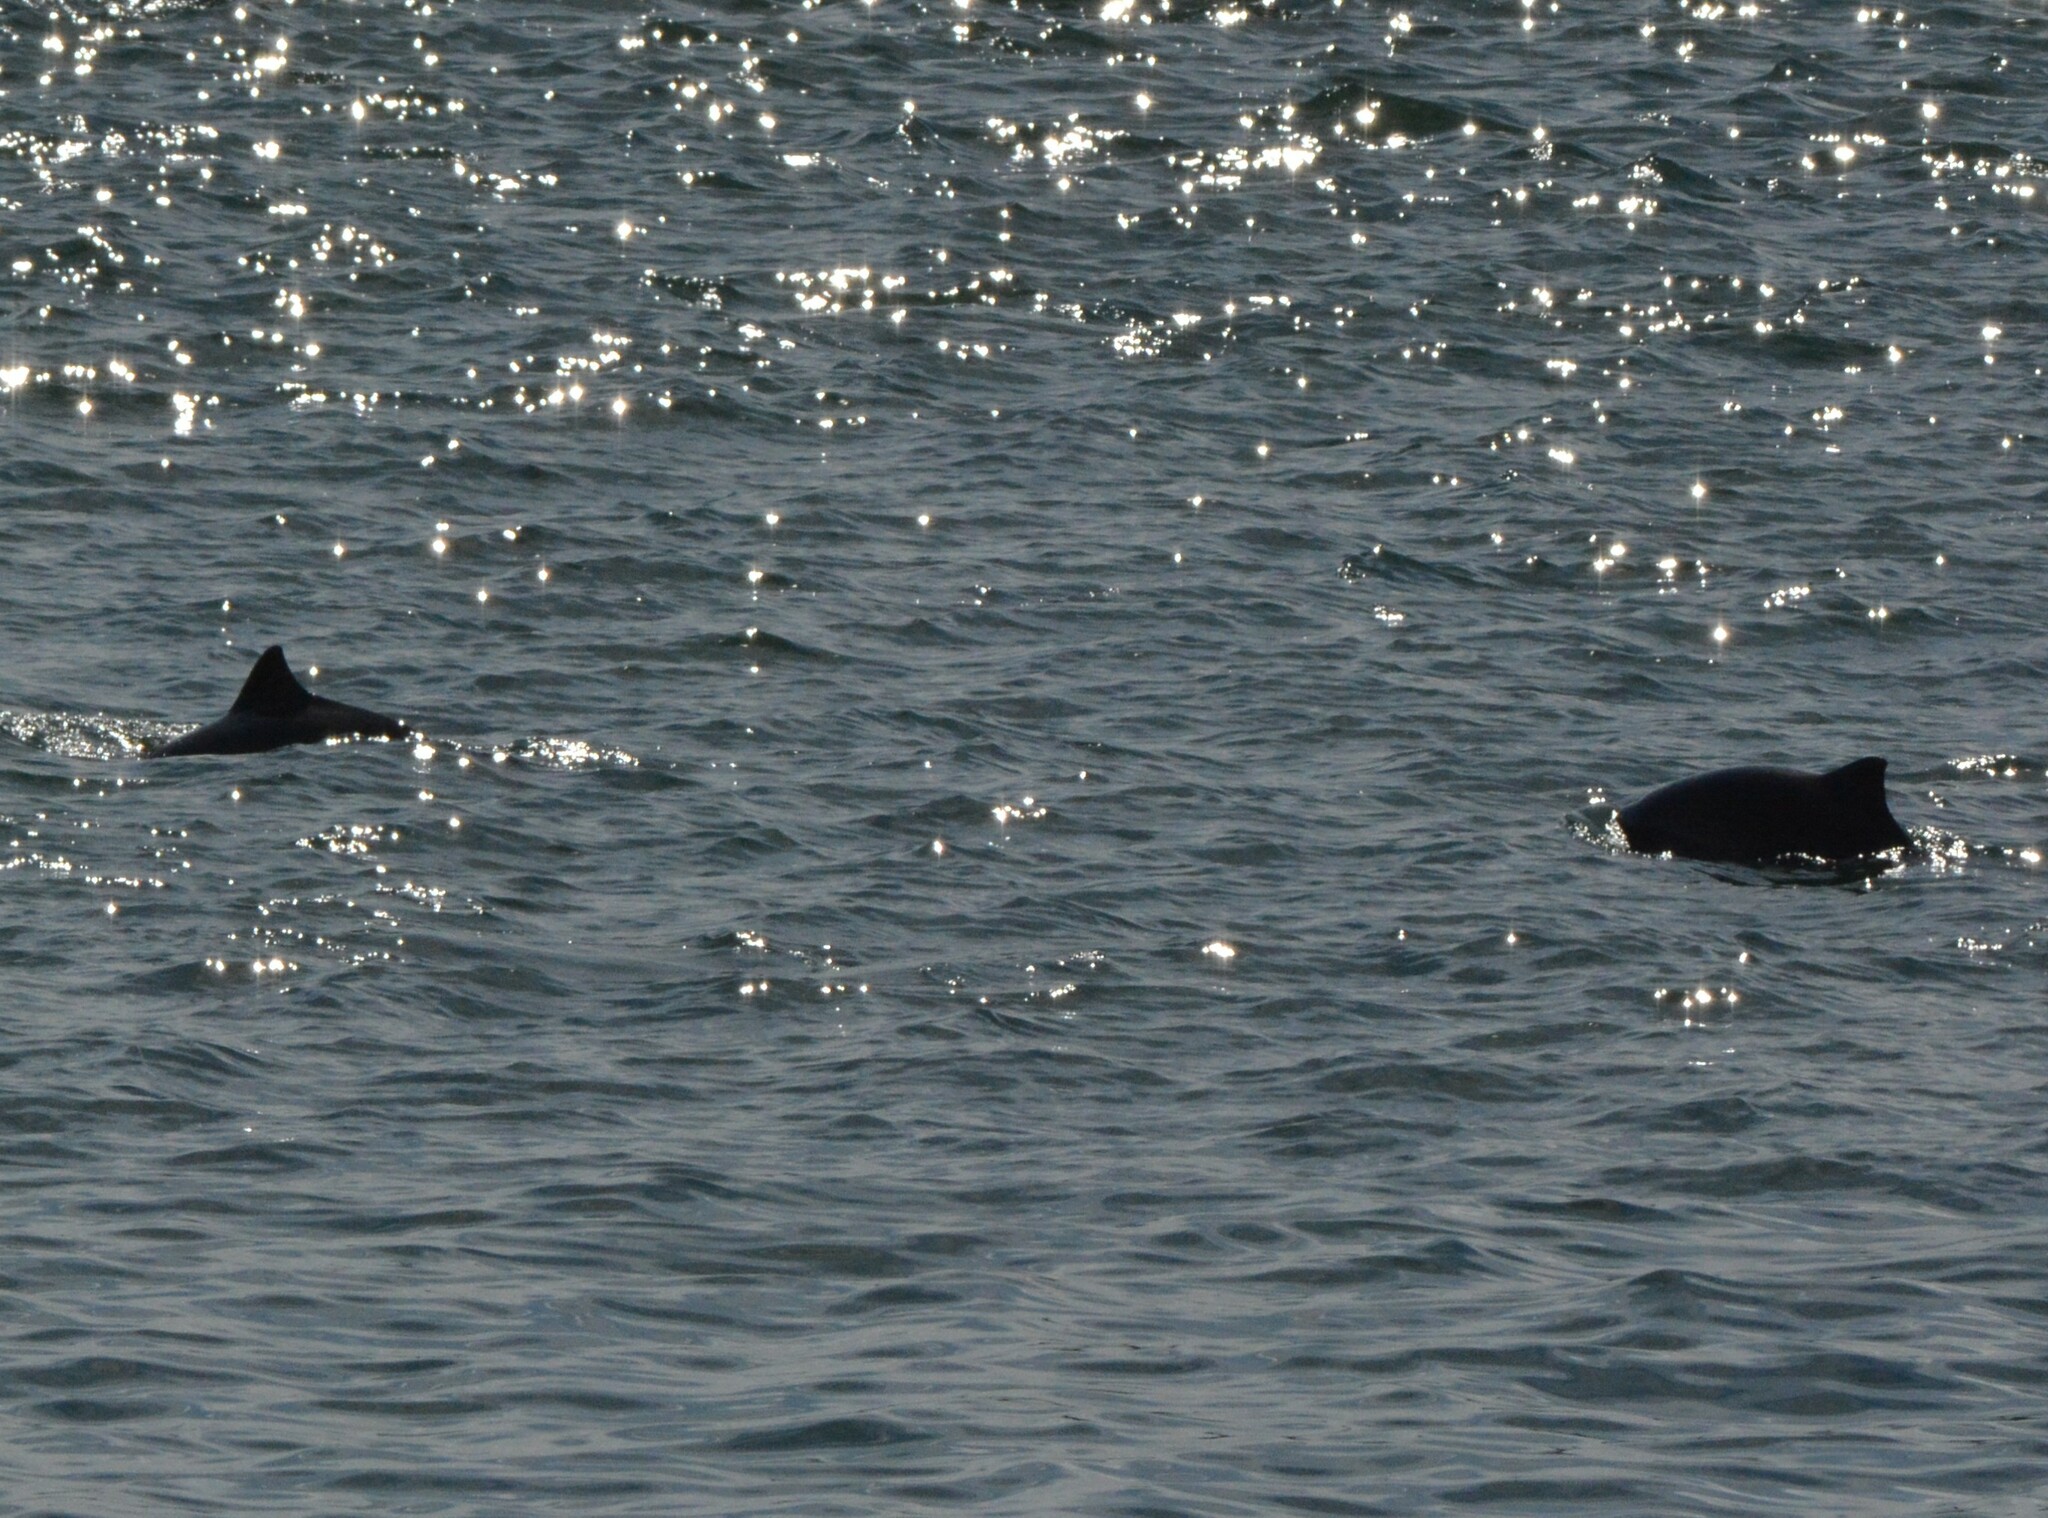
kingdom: Animalia
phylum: Chordata
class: Mammalia
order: Cetacea
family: Phocoenidae
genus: Phocoena
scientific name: Phocoena phocoena
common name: Harbor porpoise
